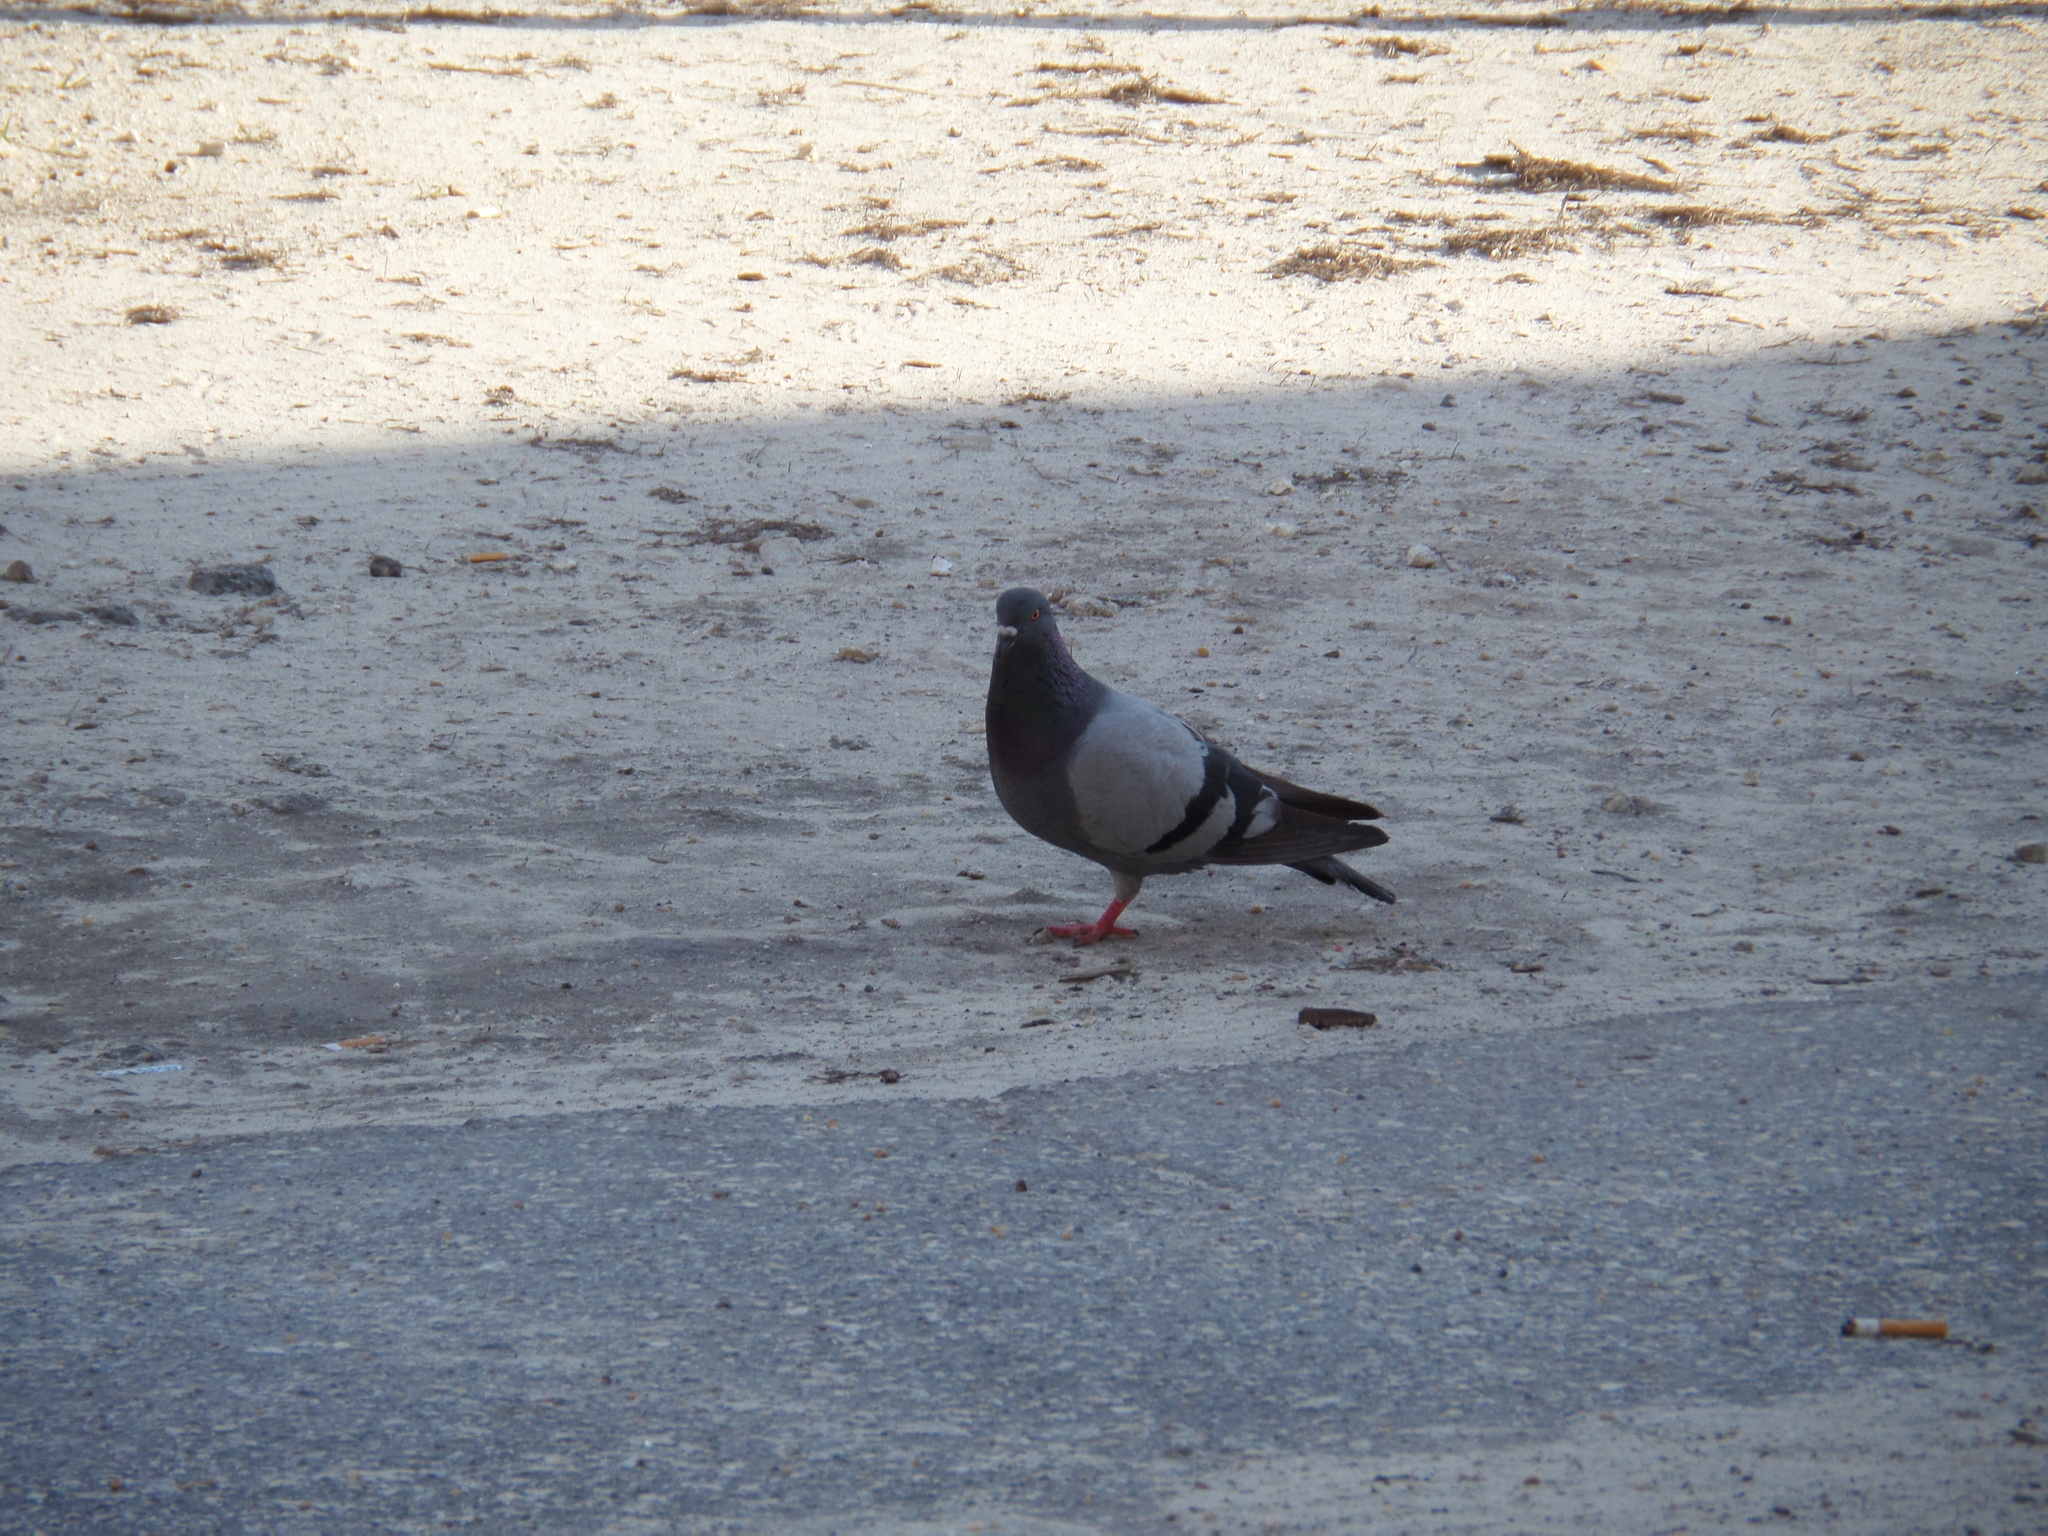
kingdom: Animalia
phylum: Chordata
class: Aves
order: Columbiformes
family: Columbidae
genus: Columba
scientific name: Columba livia
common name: Rock pigeon
